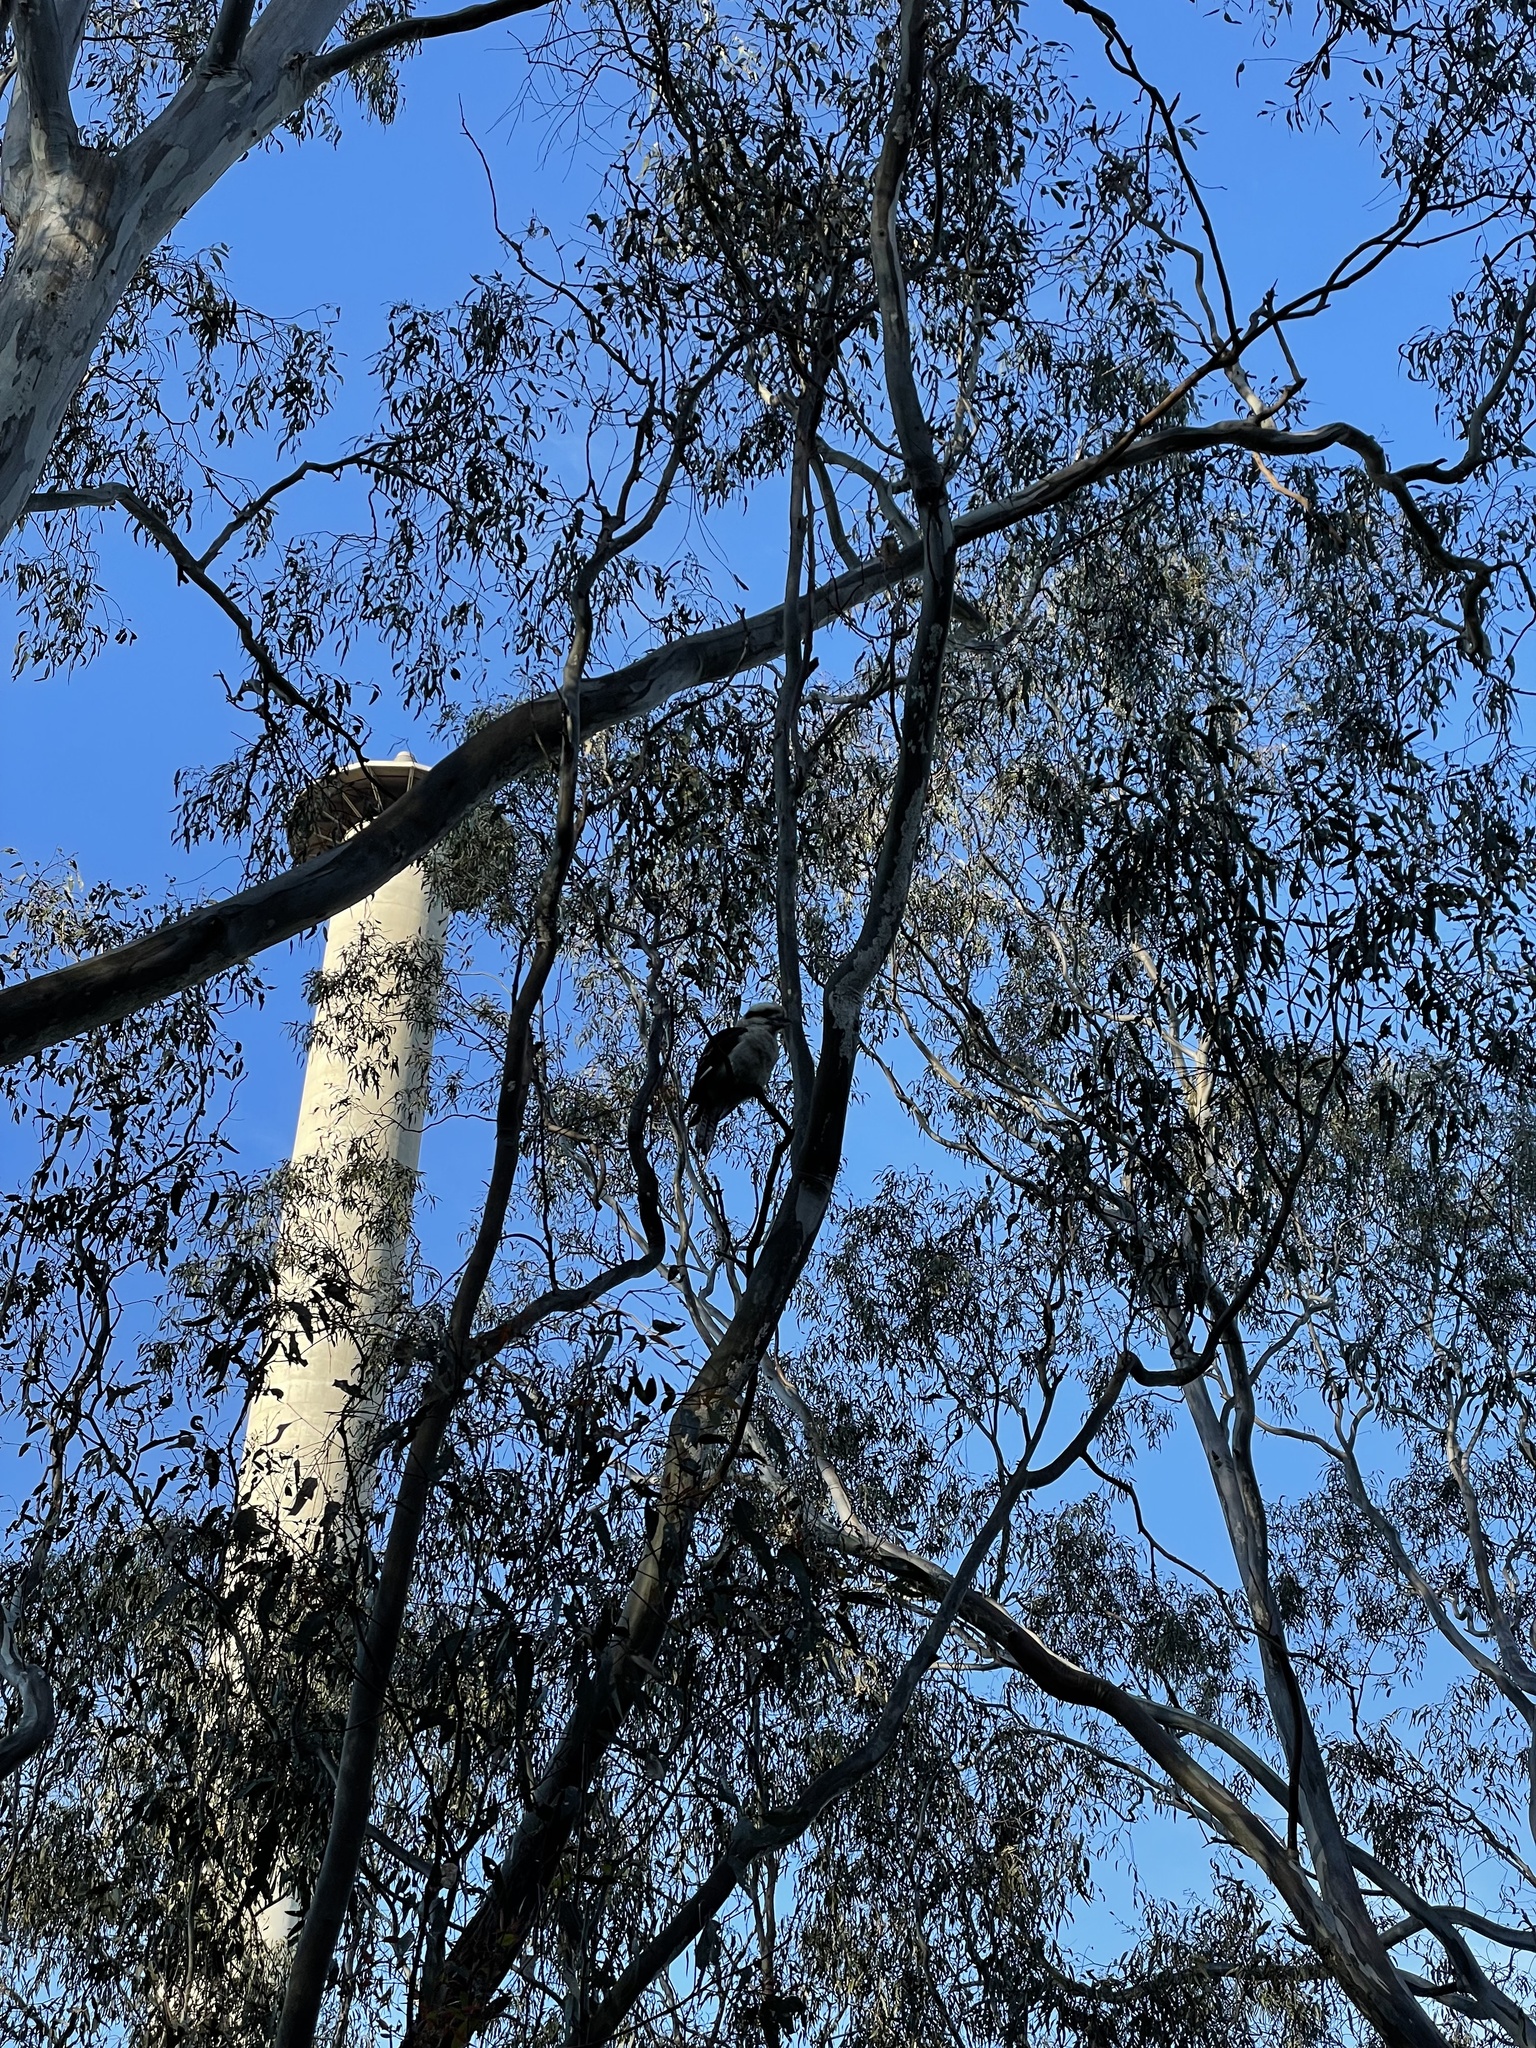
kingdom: Animalia
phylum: Chordata
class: Aves
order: Coraciiformes
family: Alcedinidae
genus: Dacelo
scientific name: Dacelo novaeguineae
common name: Laughing kookaburra
